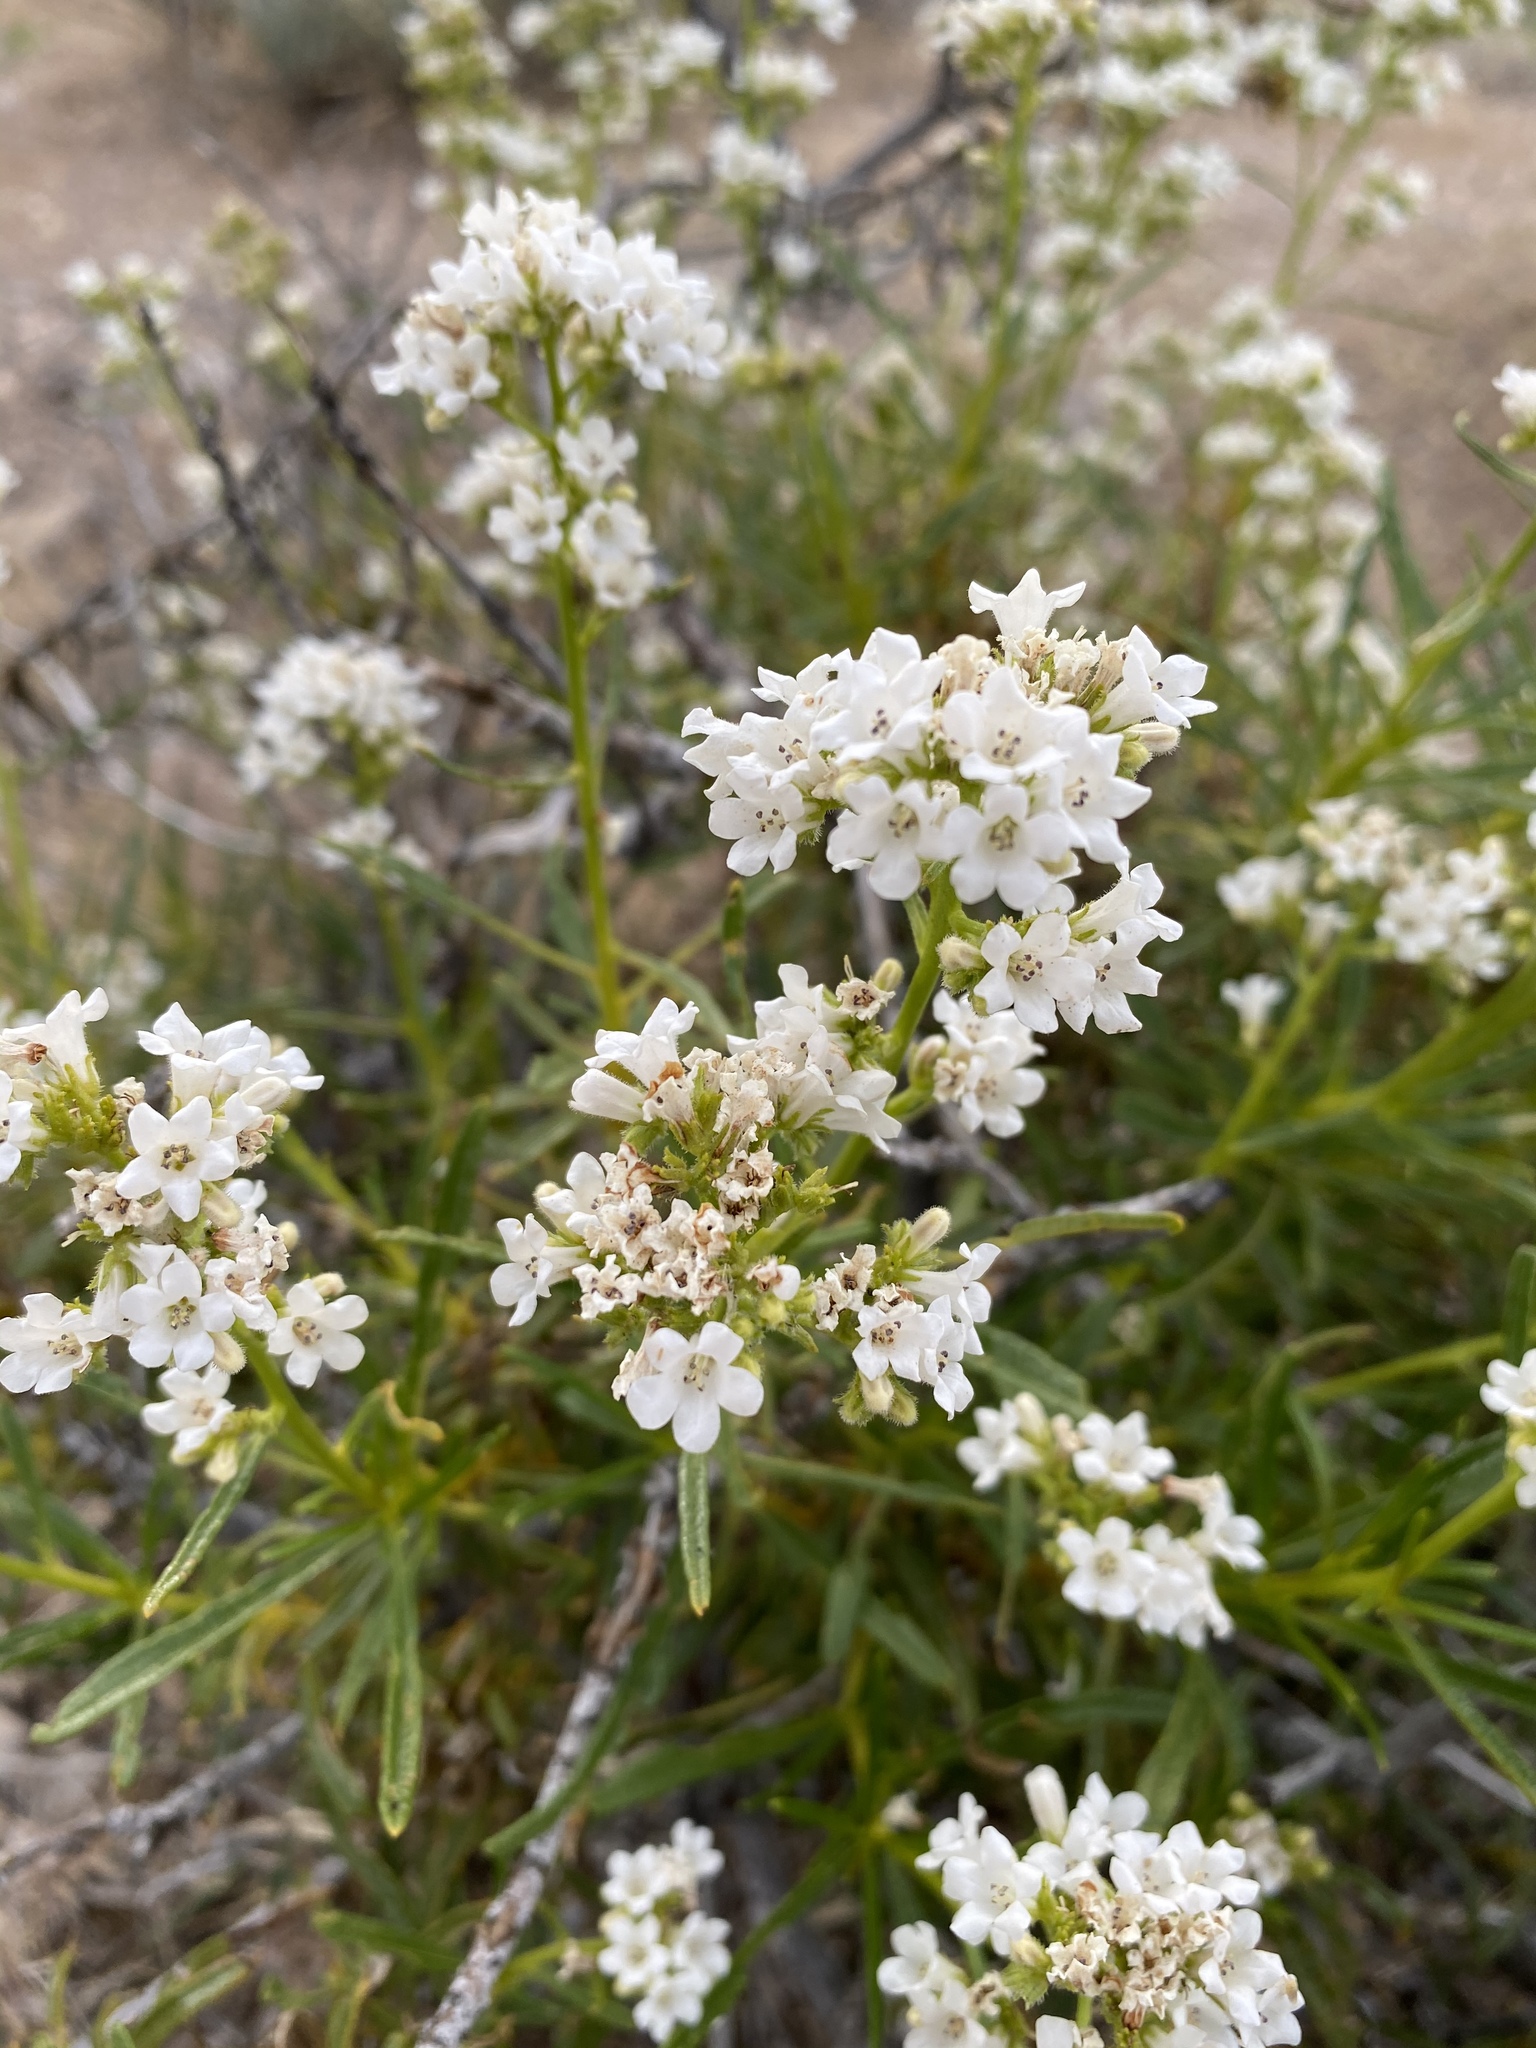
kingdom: Plantae
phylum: Tracheophyta
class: Magnoliopsida
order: Boraginales
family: Namaceae
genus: Eriodictyon
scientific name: Eriodictyon angustifolium
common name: Narrow-leaf yerba santa
